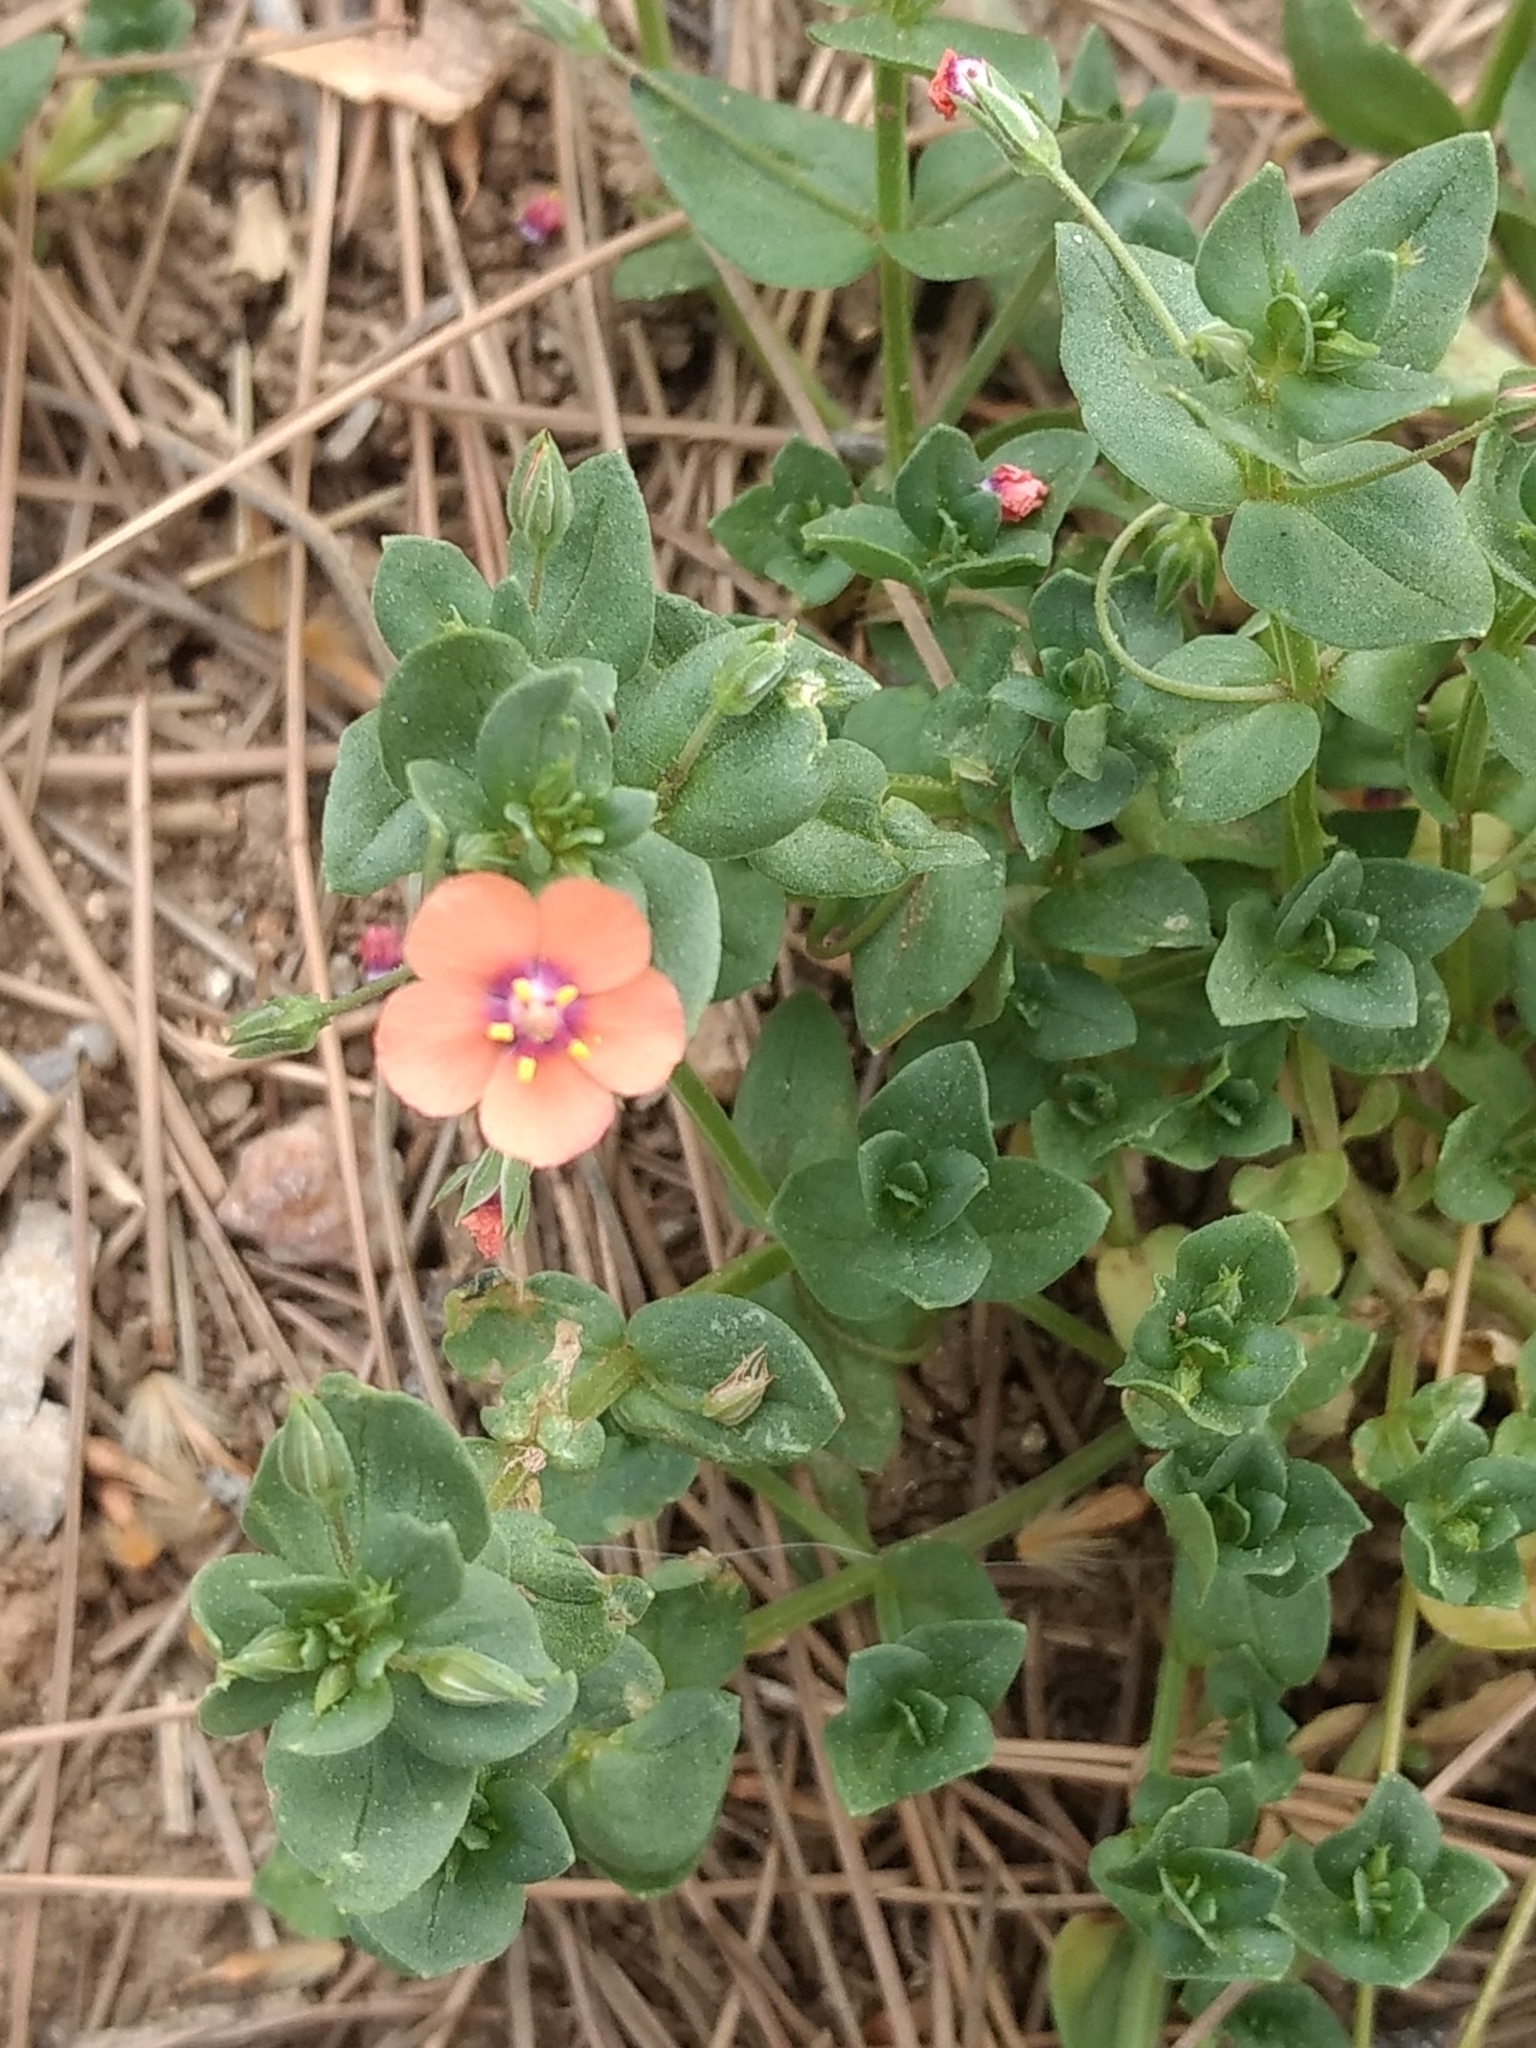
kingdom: Plantae
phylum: Tracheophyta
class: Magnoliopsida
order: Ericales
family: Primulaceae
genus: Lysimachia
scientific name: Lysimachia arvensis
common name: Scarlet pimpernel
